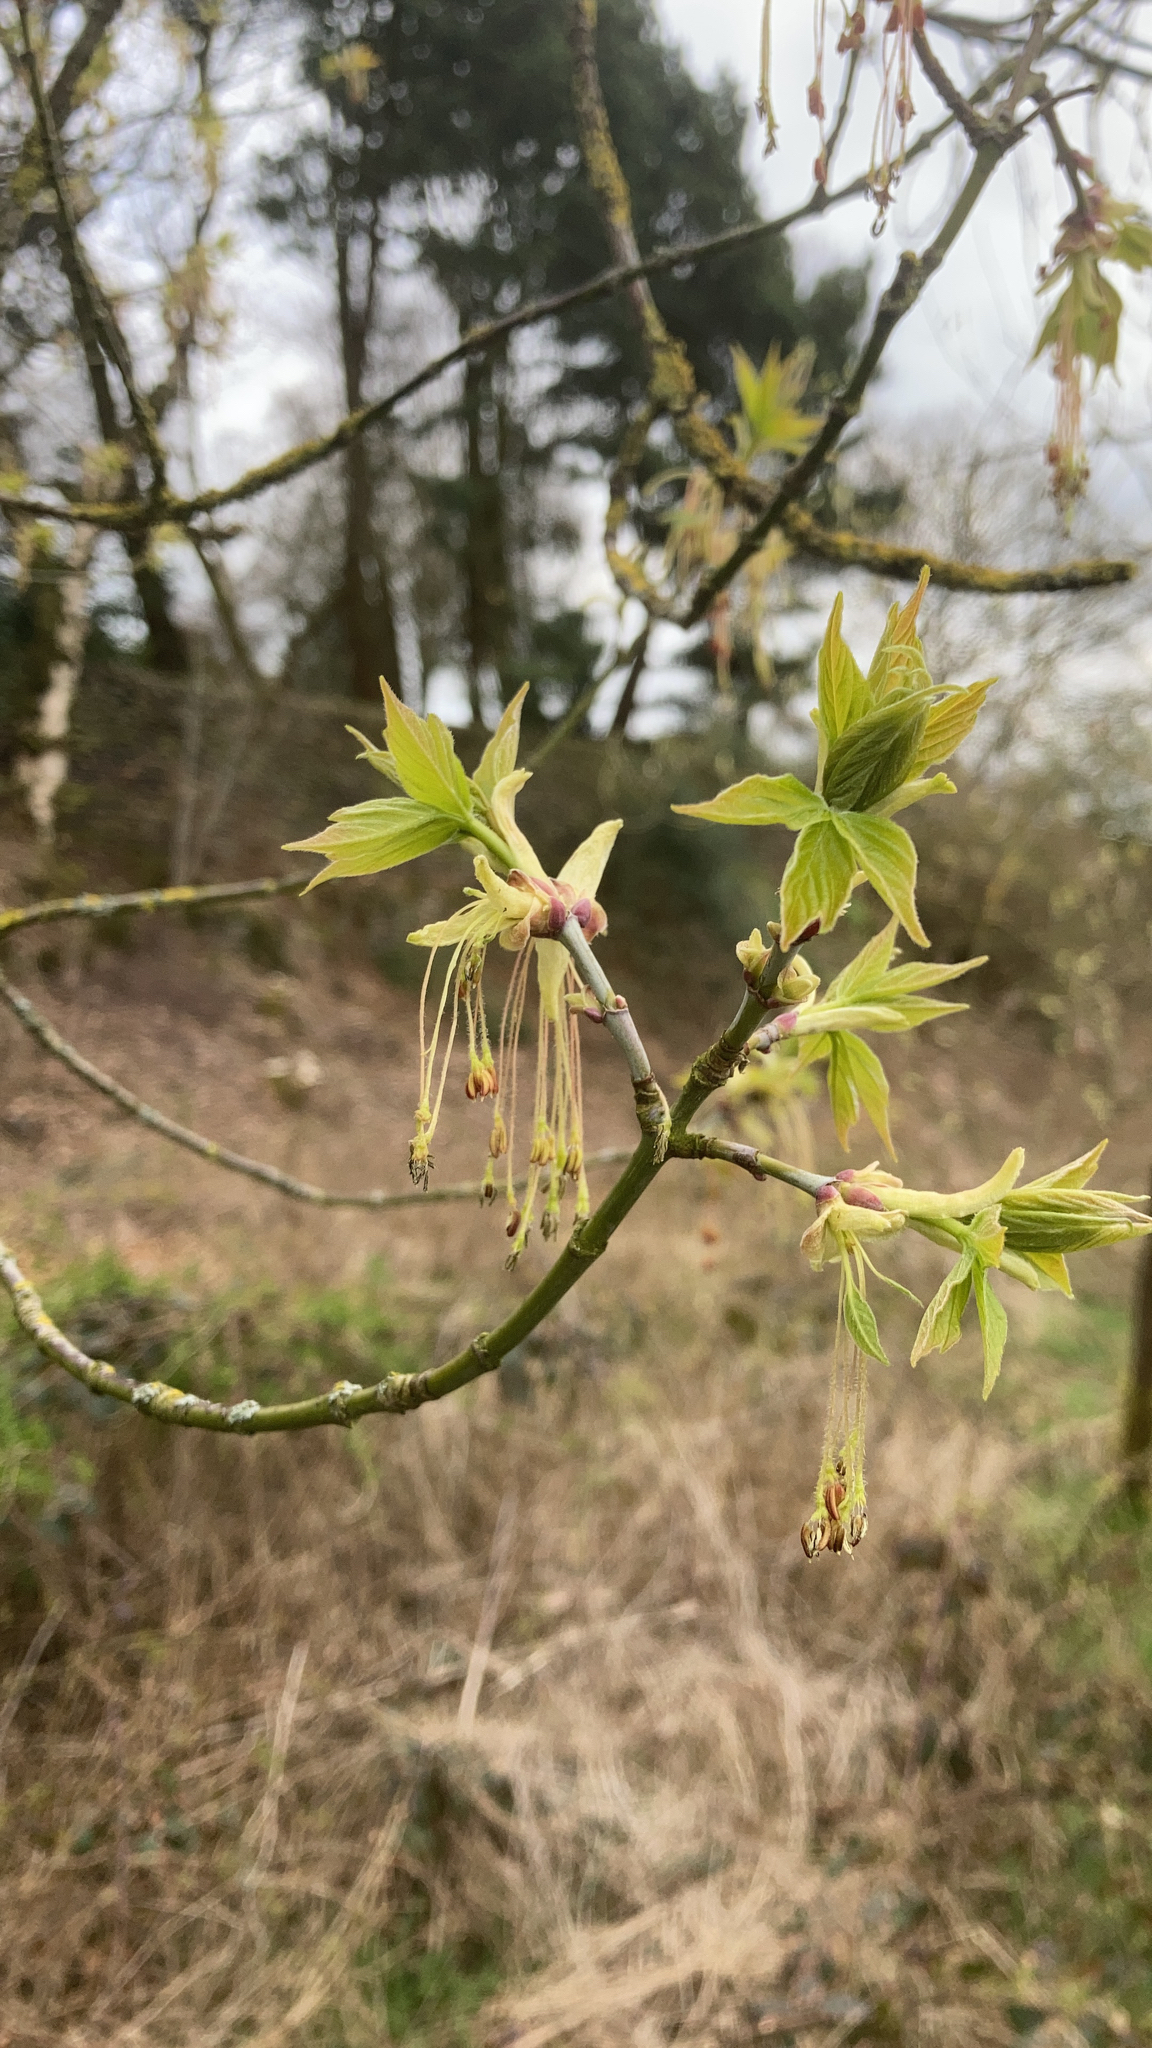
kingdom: Plantae
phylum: Tracheophyta
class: Magnoliopsida
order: Sapindales
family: Sapindaceae
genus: Acer
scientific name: Acer negundo
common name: Ashleaf maple
